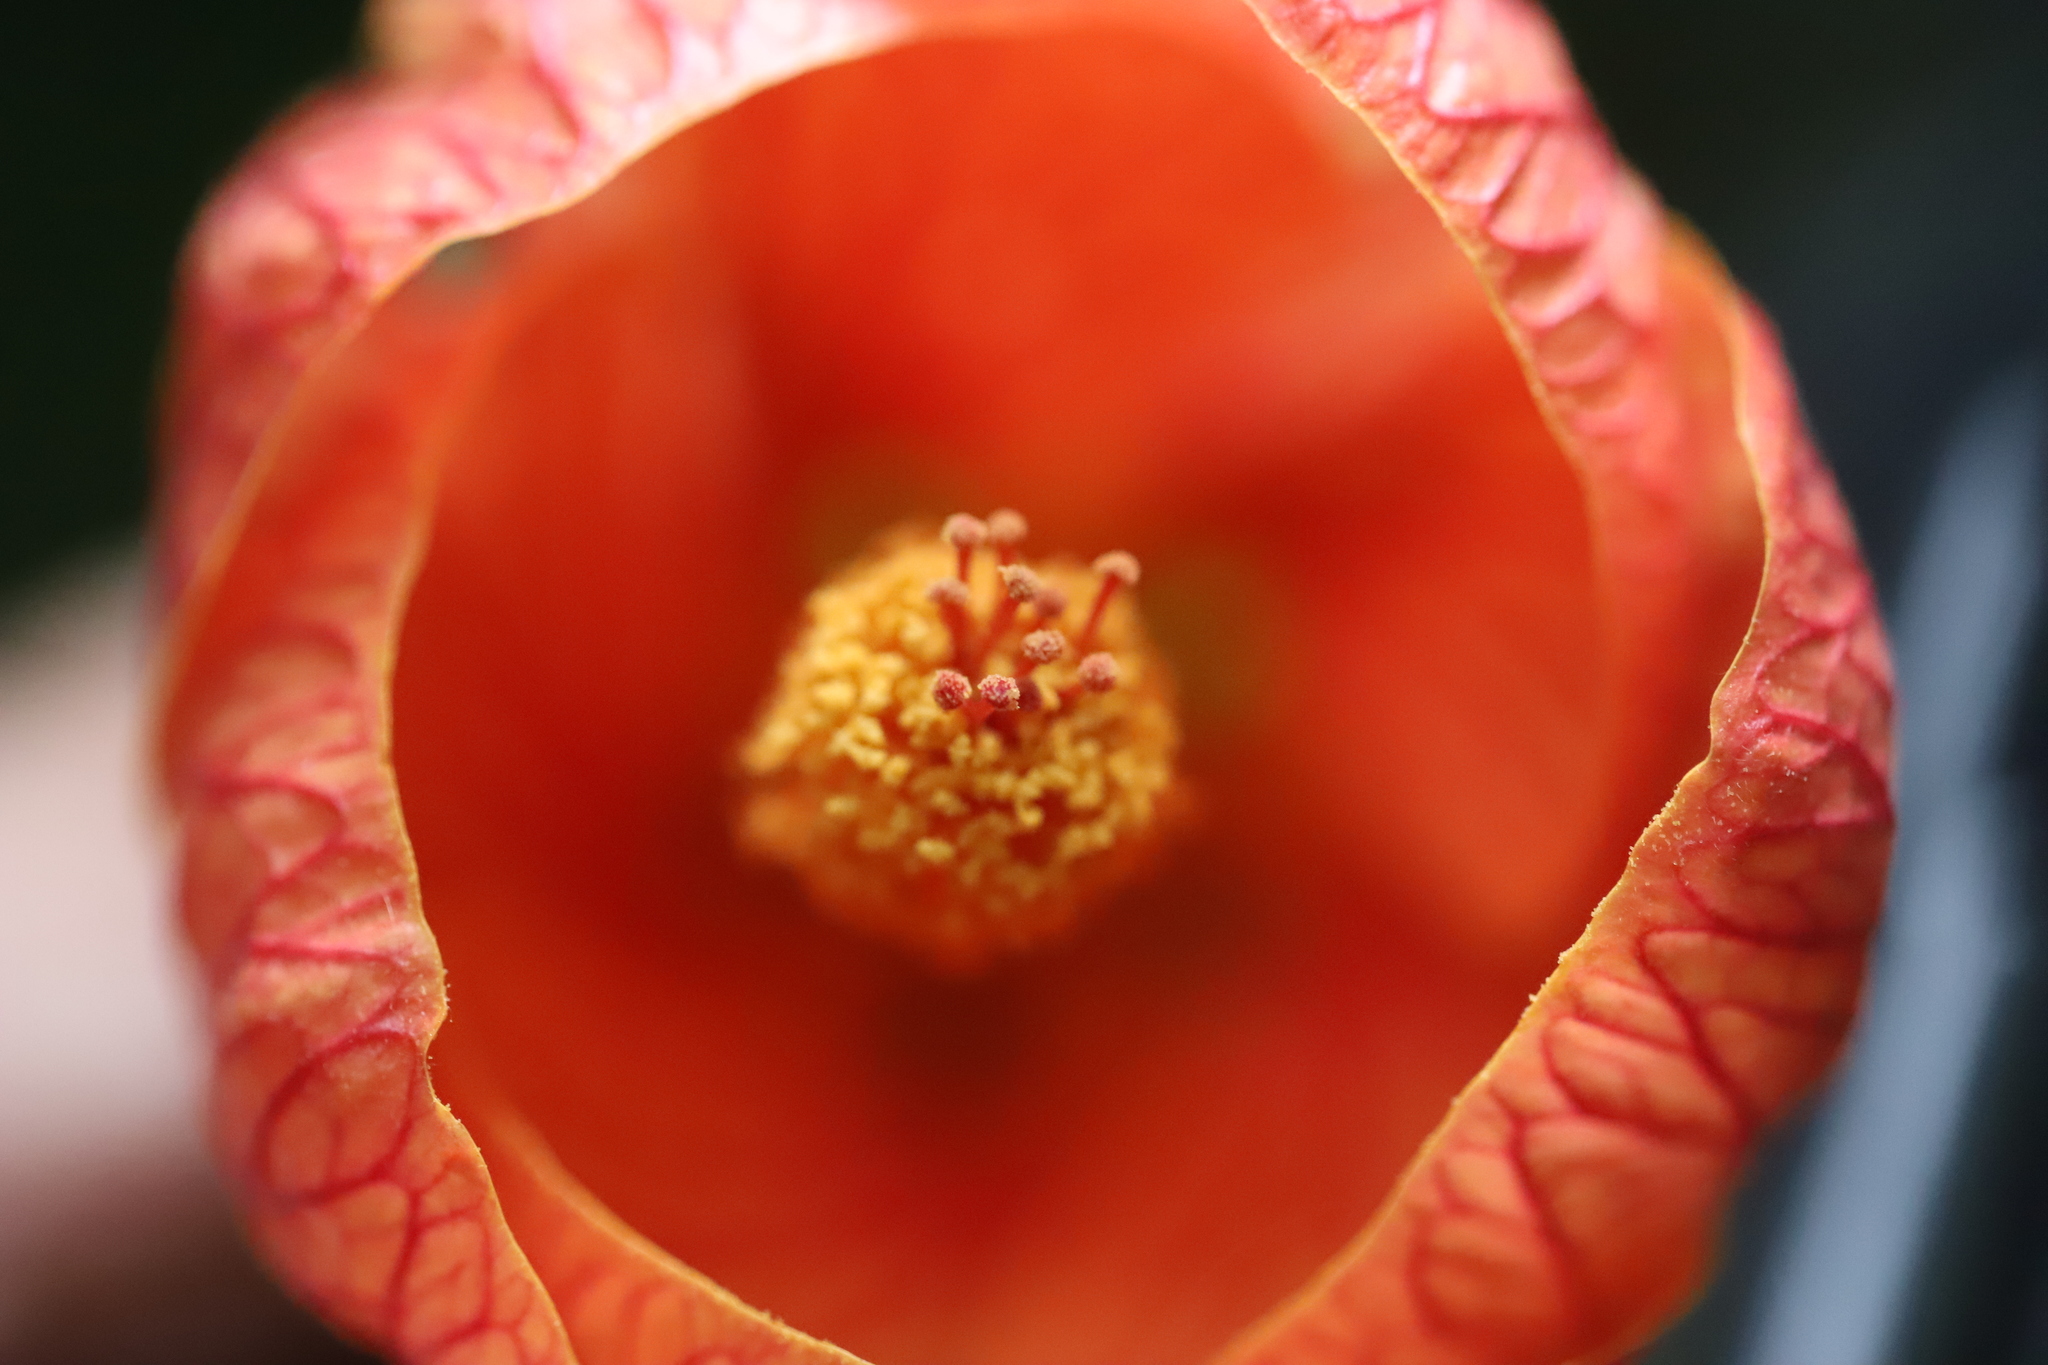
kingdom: Plantae
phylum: Tracheophyta
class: Magnoliopsida
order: Malvales
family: Malvaceae
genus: Callianthe
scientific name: Callianthe picta
